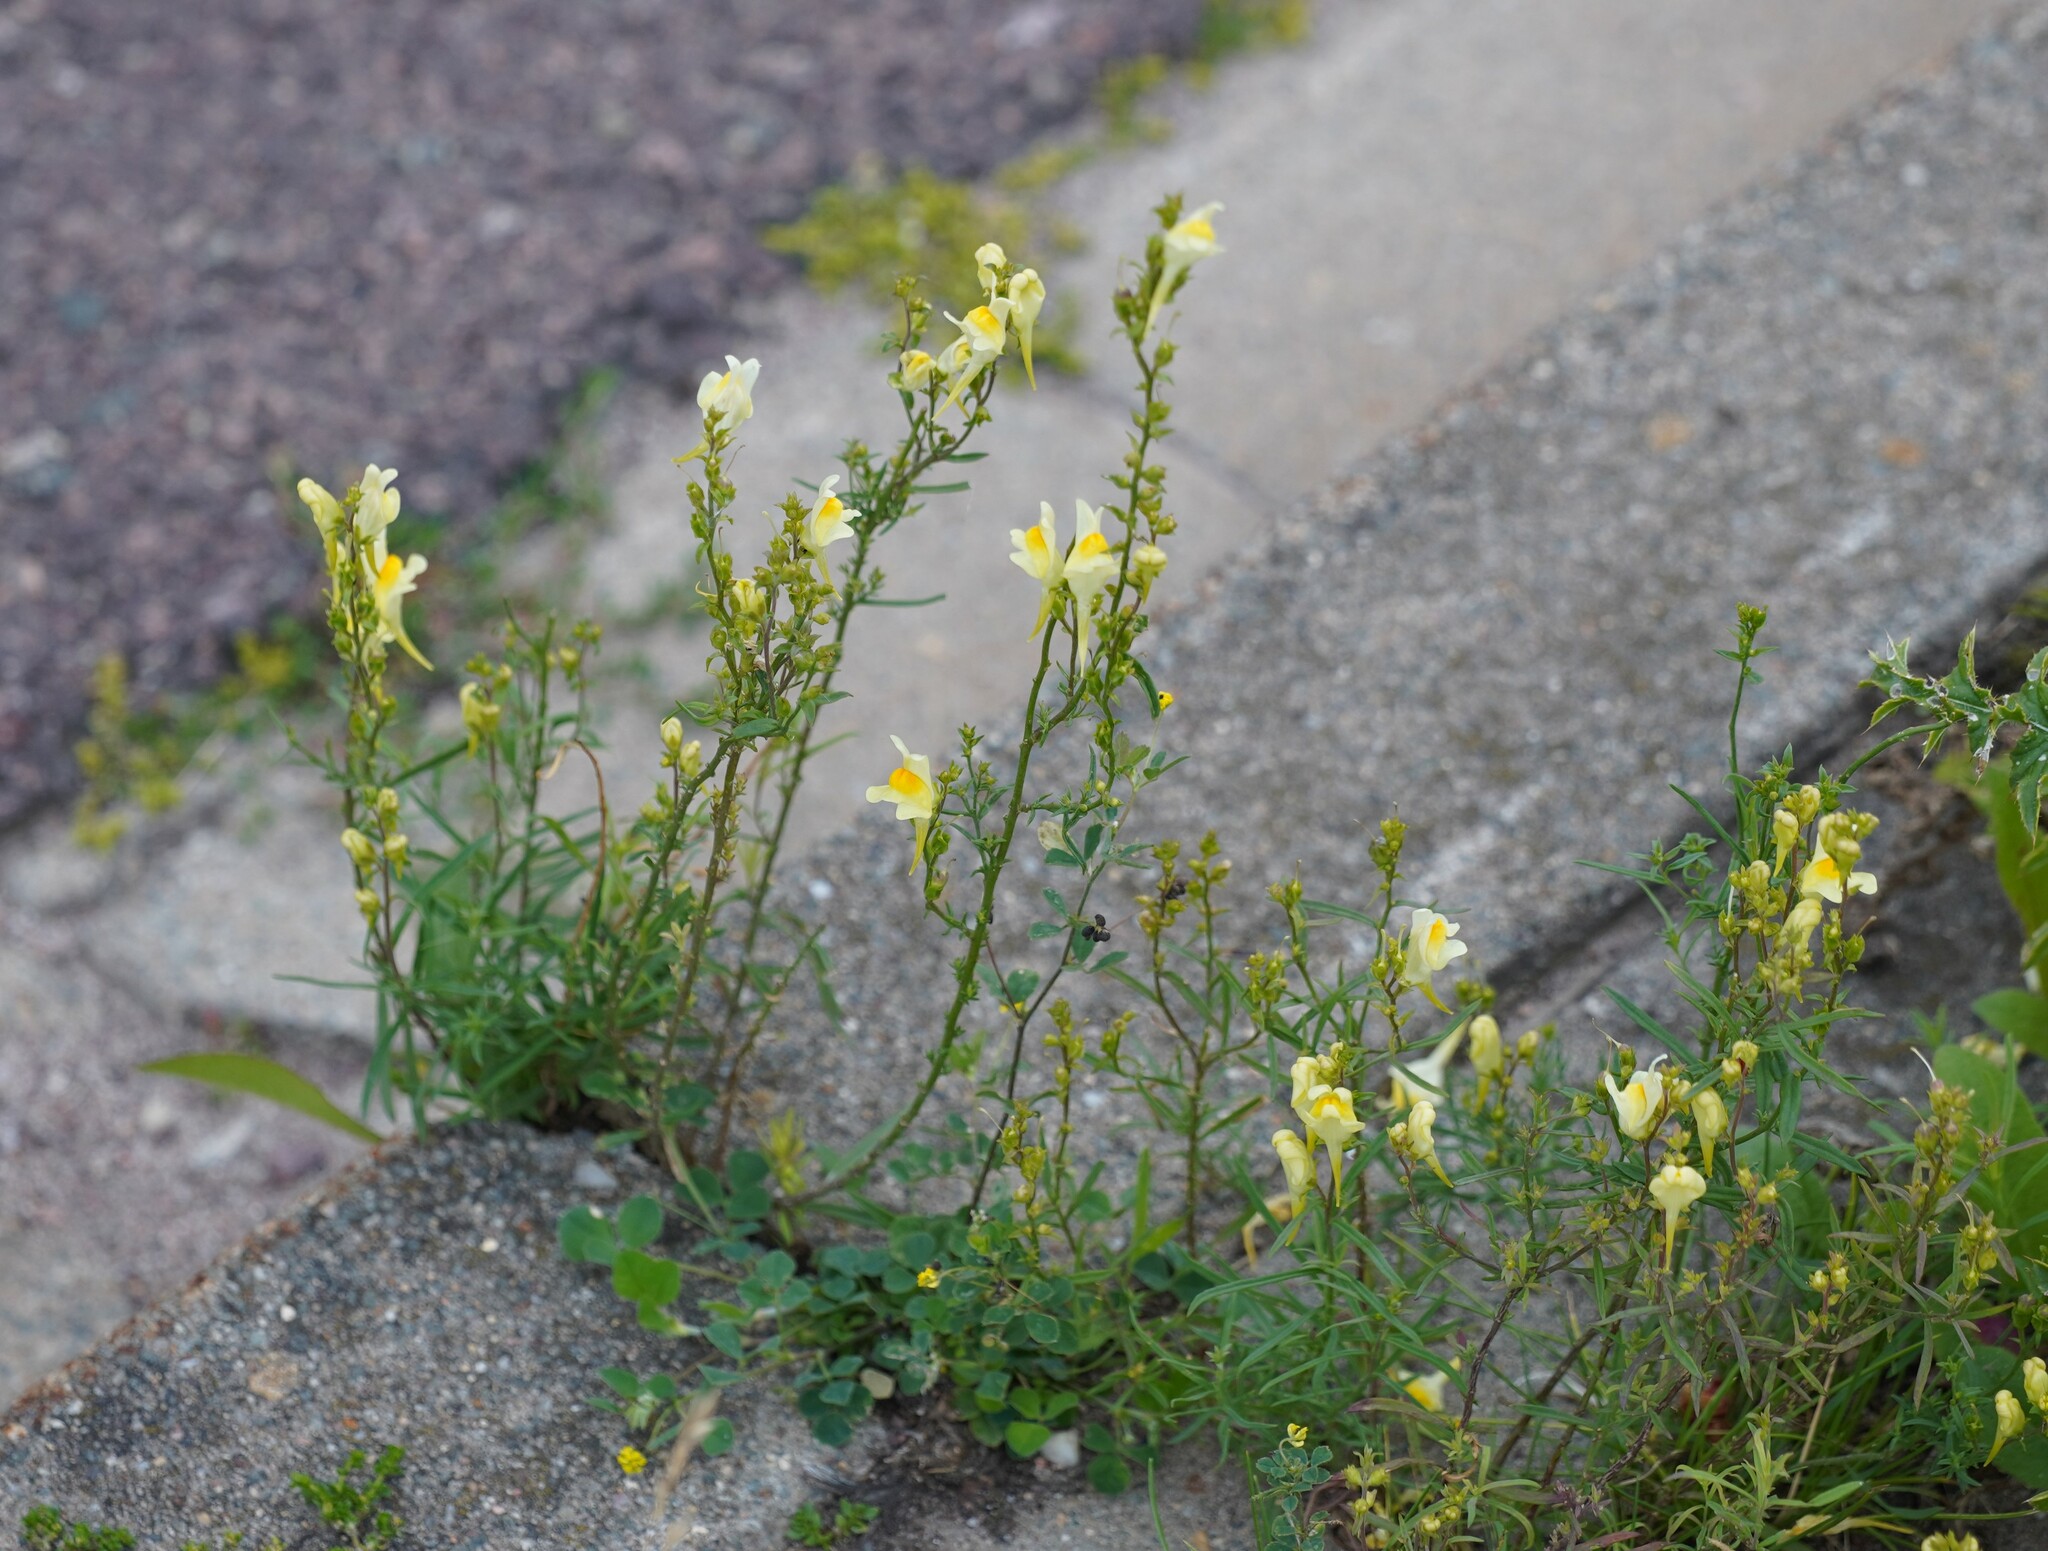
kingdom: Plantae
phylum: Tracheophyta
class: Magnoliopsida
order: Lamiales
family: Plantaginaceae
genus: Linaria
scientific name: Linaria vulgaris
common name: Butter and eggs
